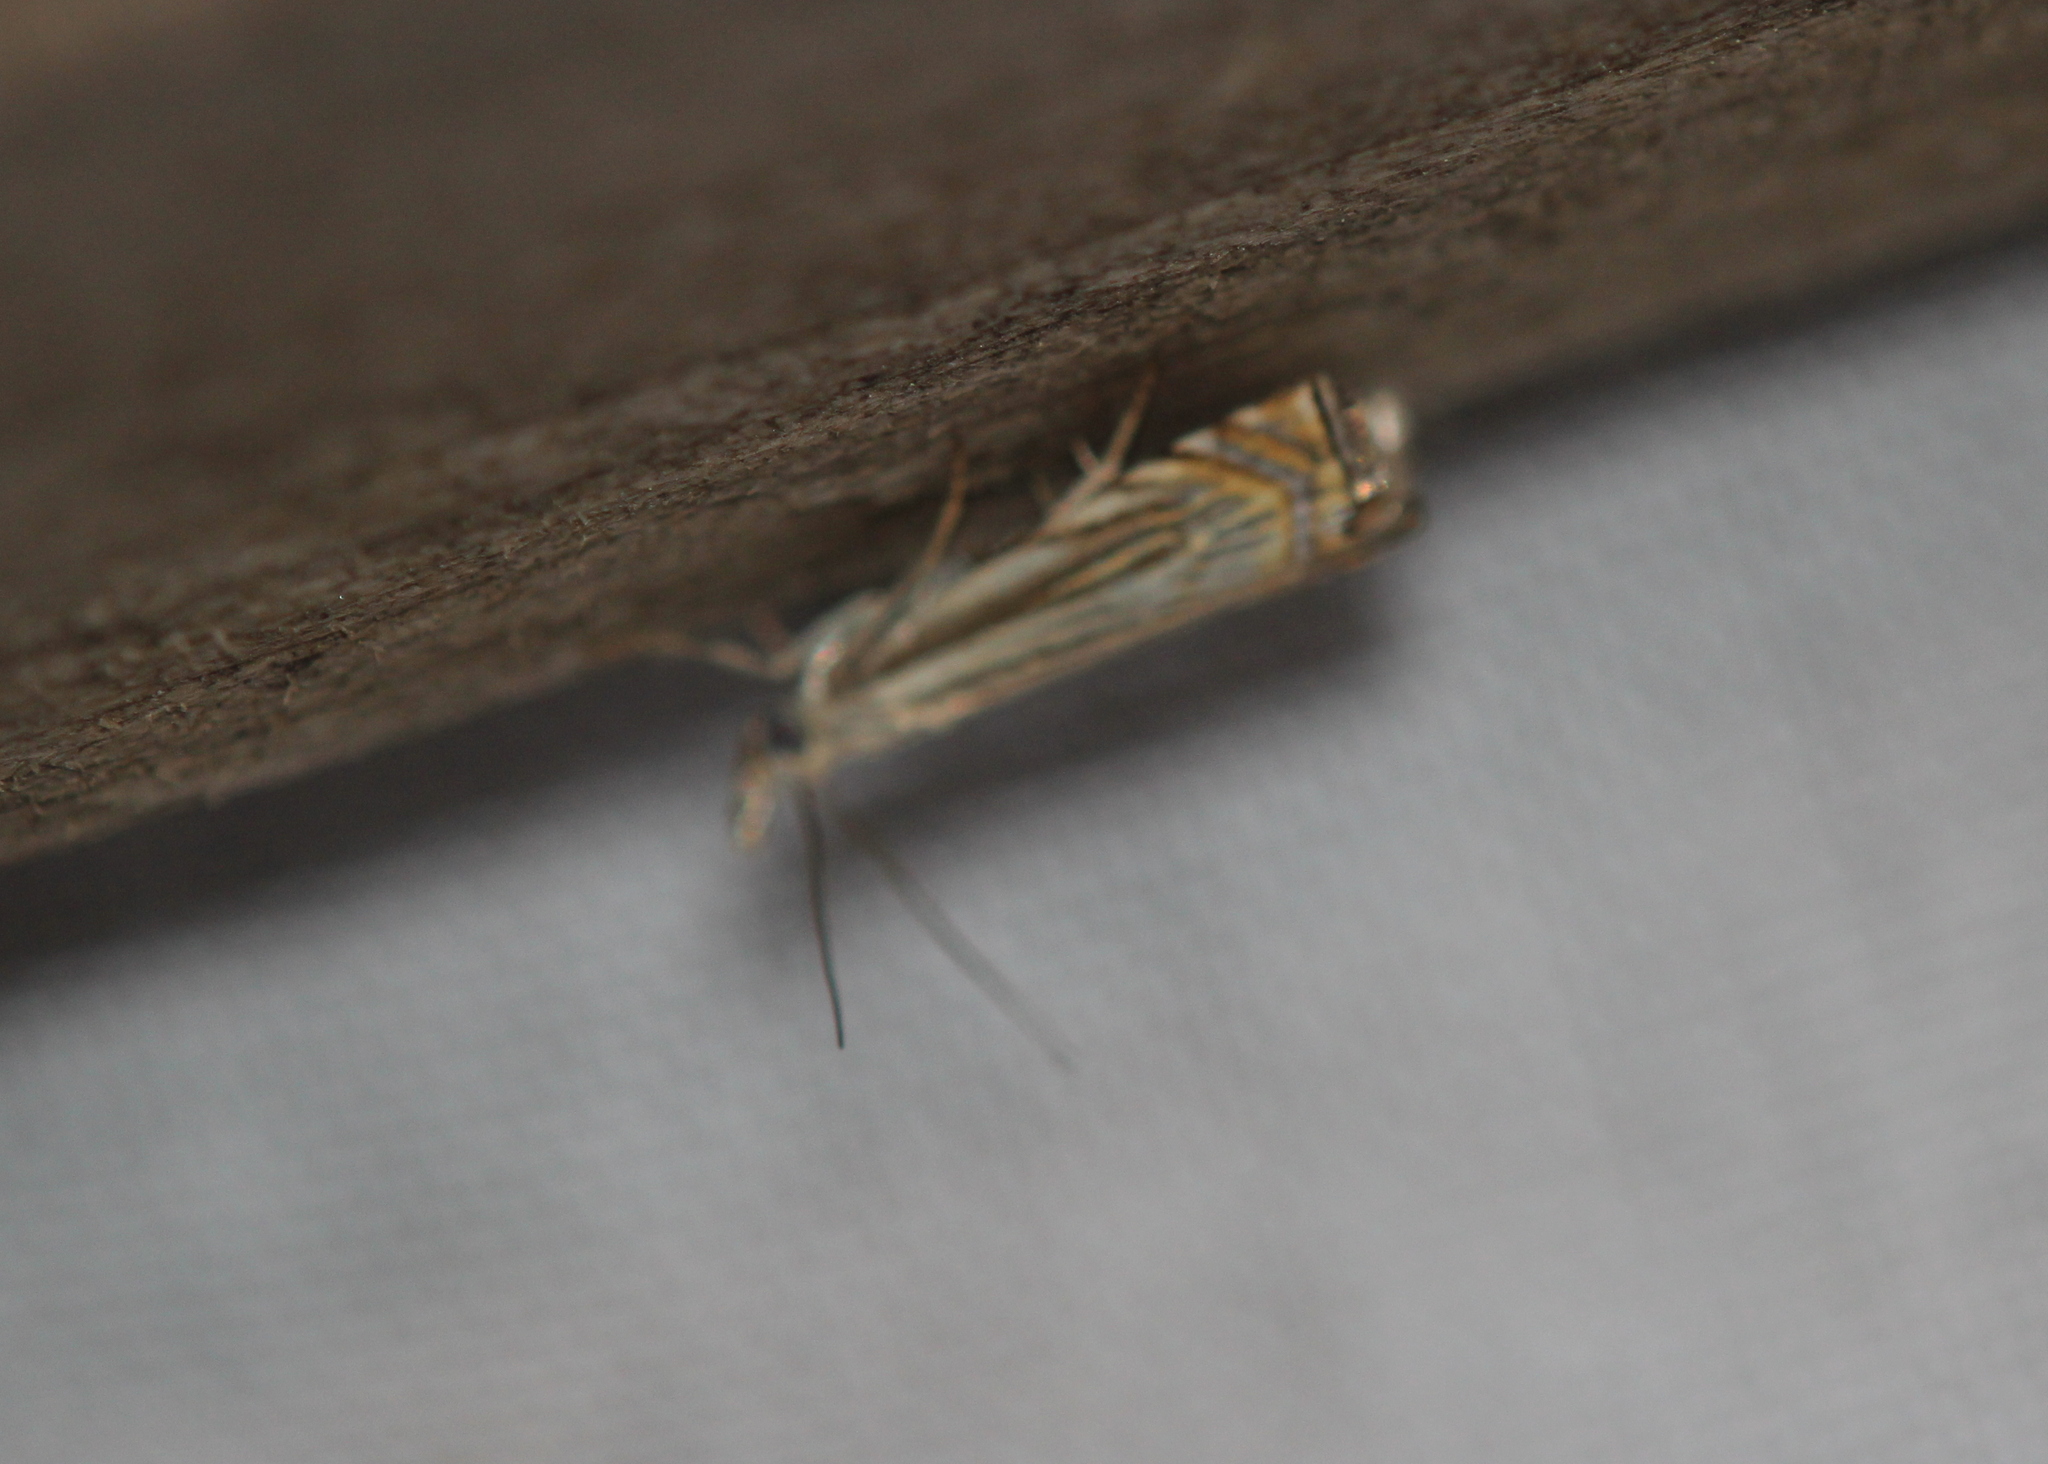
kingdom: Animalia
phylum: Arthropoda
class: Insecta
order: Lepidoptera
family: Crambidae
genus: Chrysoteuchia
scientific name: Chrysoteuchia topiarius
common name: Topiary grass-veneer
